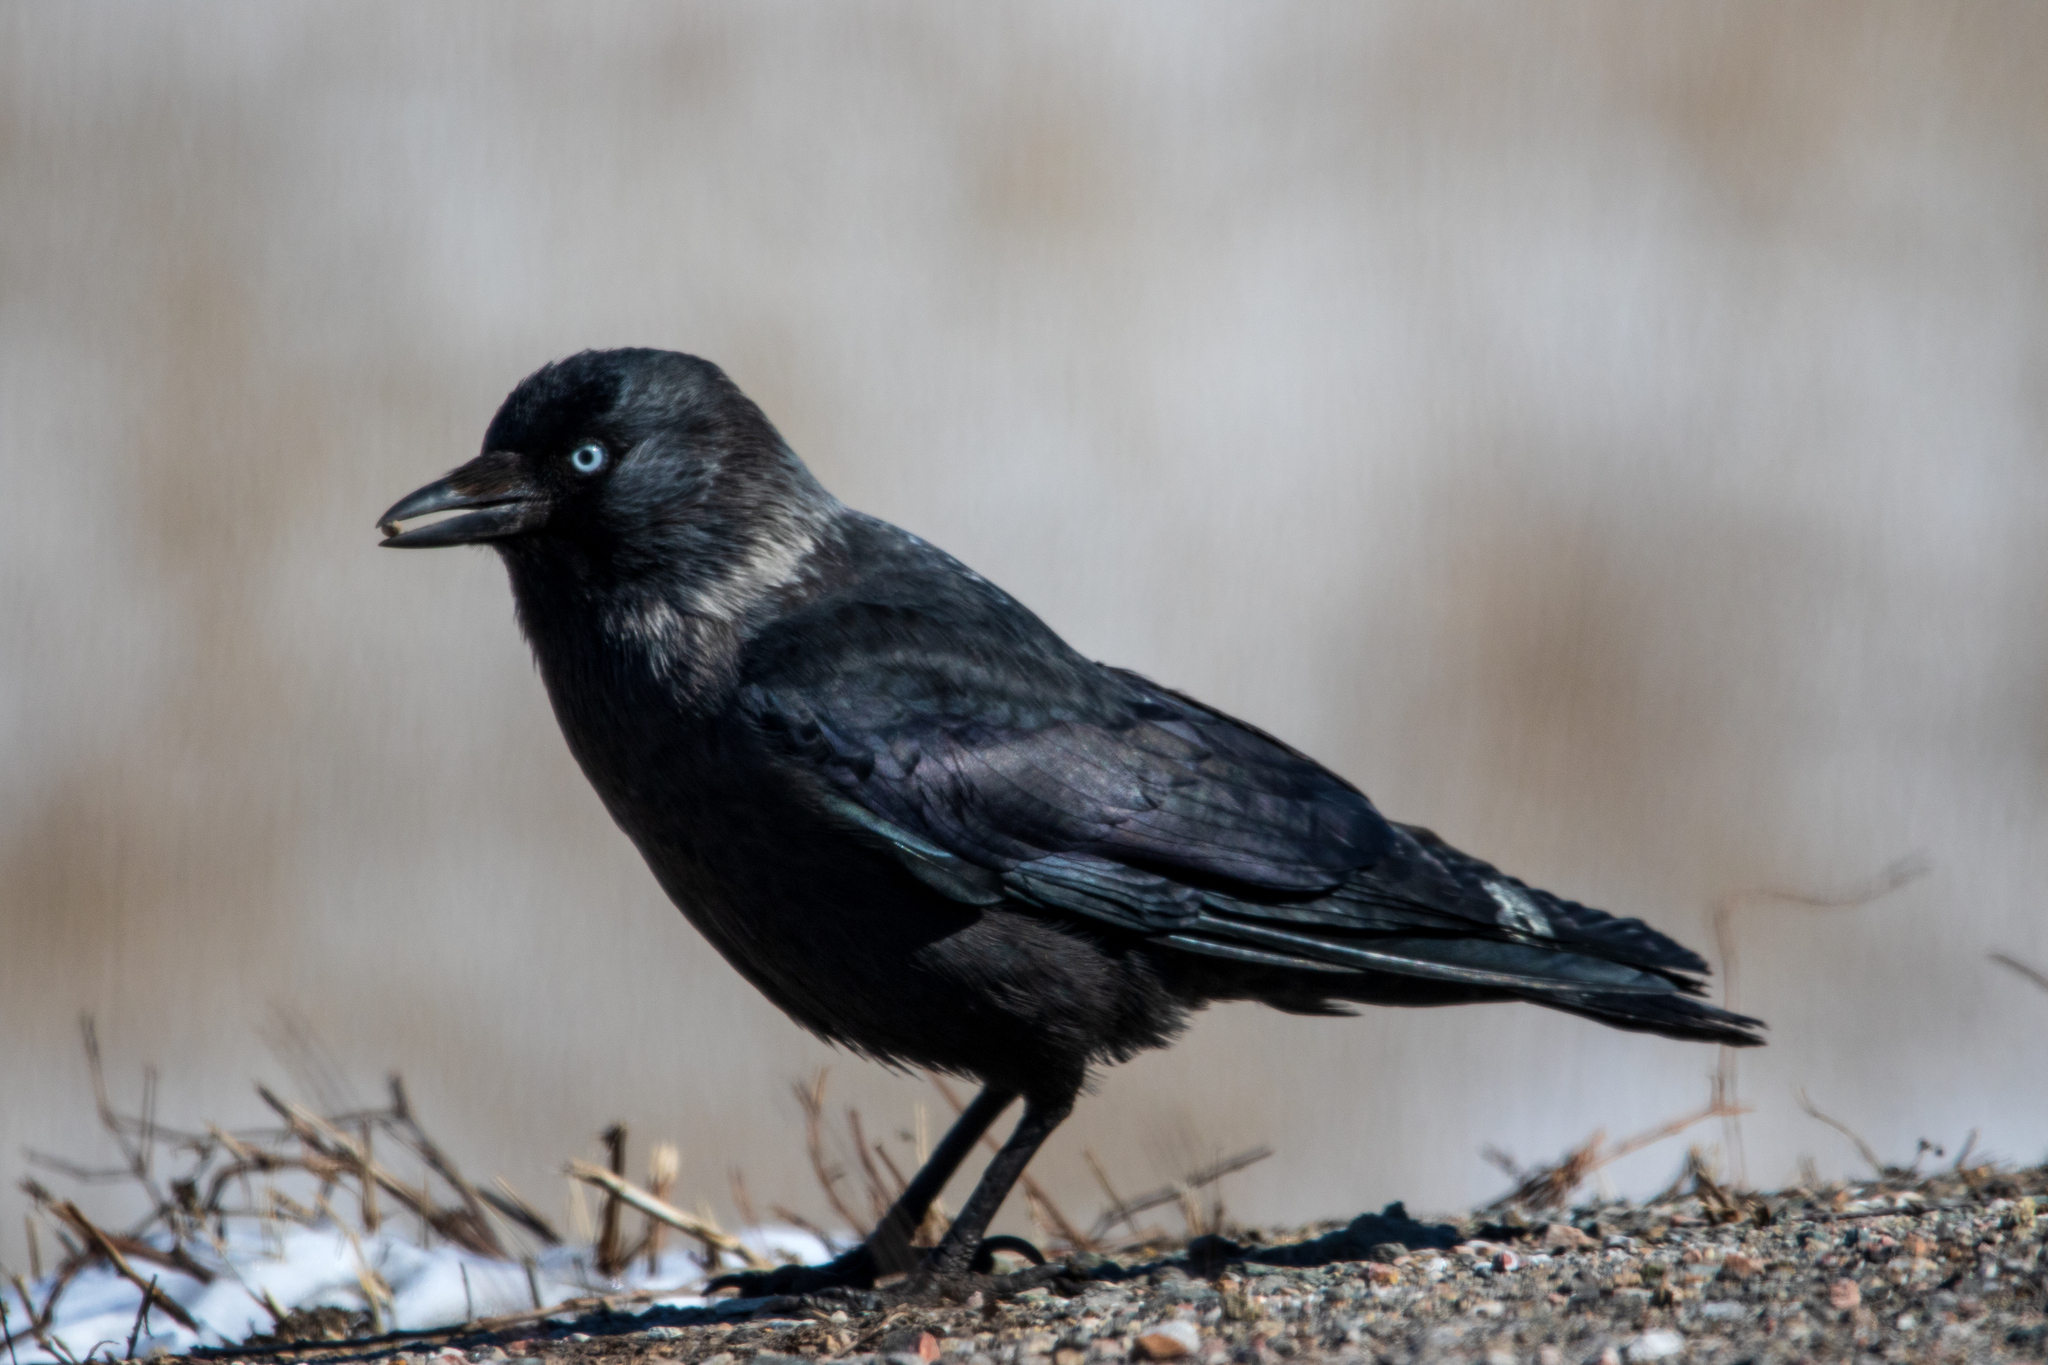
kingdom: Animalia
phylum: Chordata
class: Aves
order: Passeriformes
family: Corvidae
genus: Coloeus
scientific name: Coloeus monedula
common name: Western jackdaw
